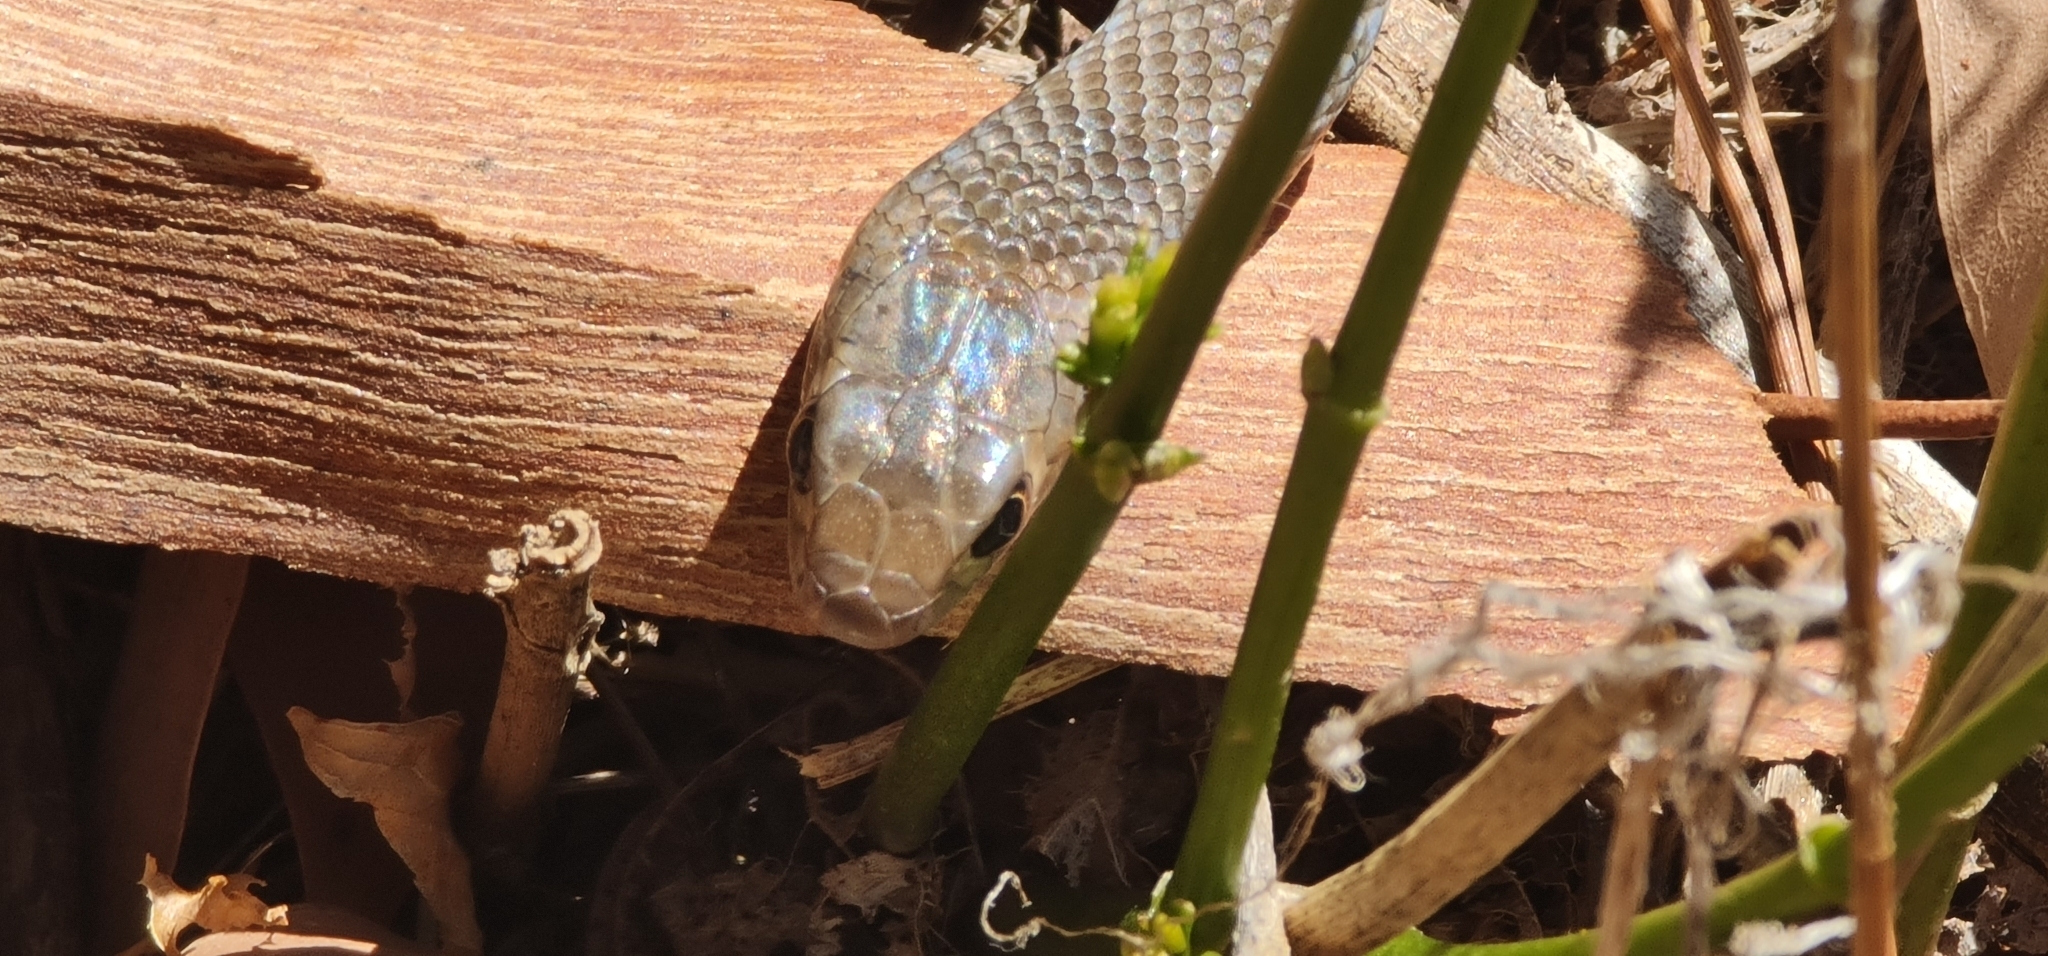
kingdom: Animalia
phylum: Chordata
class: Squamata
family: Elapidae
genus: Pseudonaja
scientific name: Pseudonaja textilis
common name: Eastern brown snake
